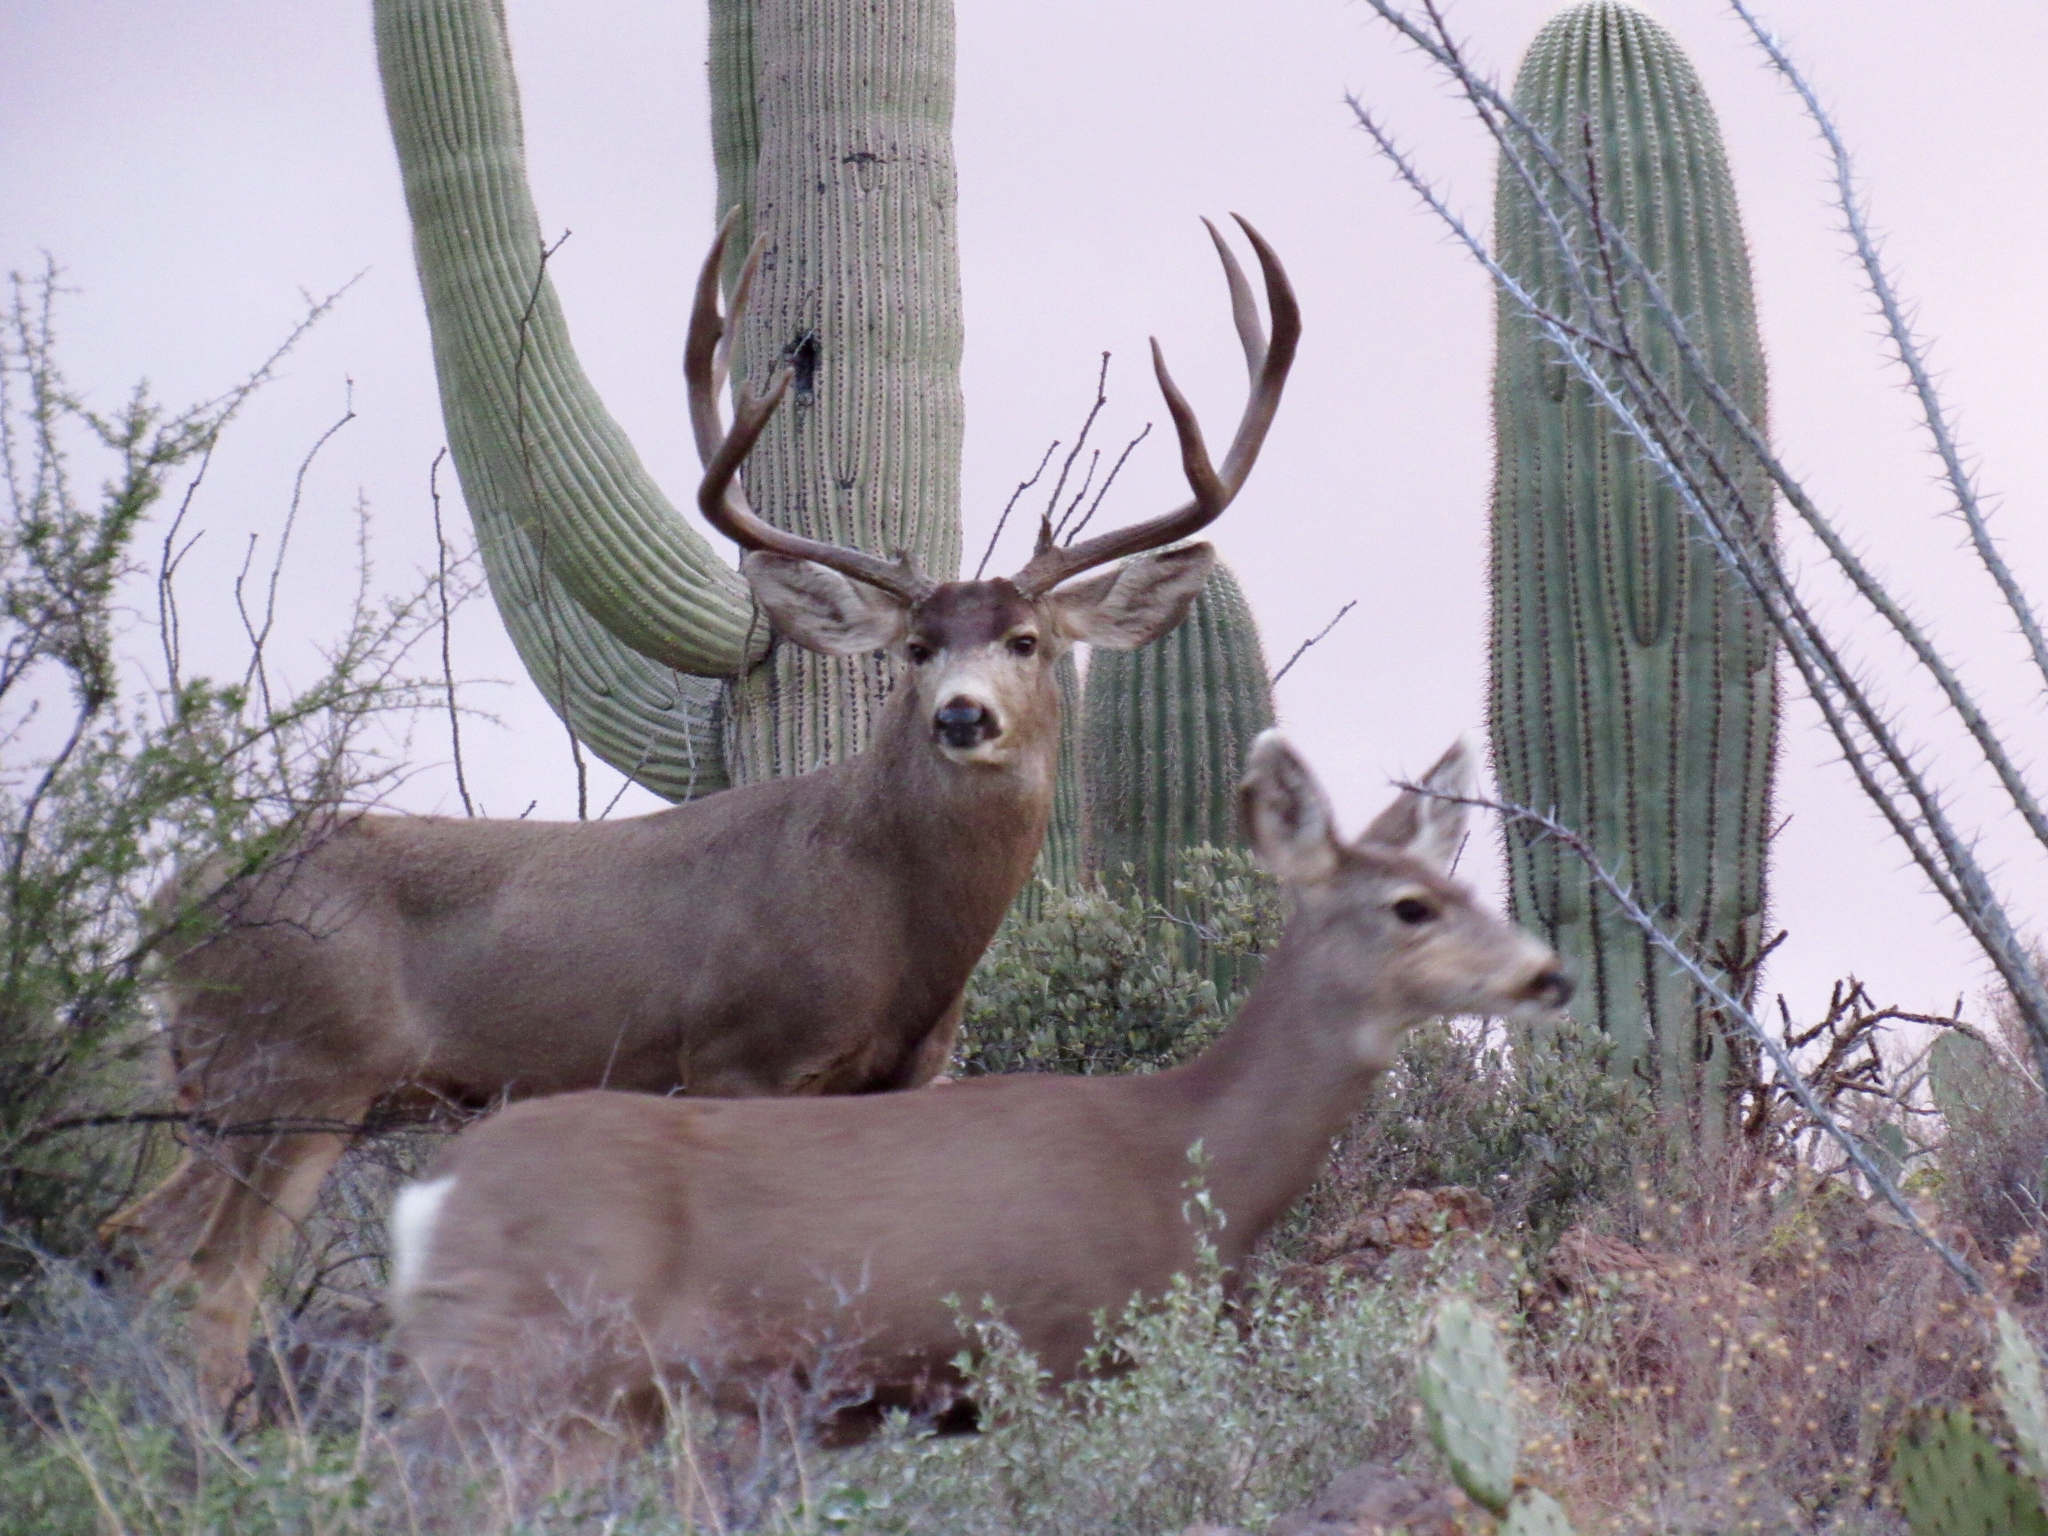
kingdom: Animalia
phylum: Chordata
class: Mammalia
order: Artiodactyla
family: Cervidae
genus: Odocoileus
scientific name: Odocoileus hemionus
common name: Mule deer
